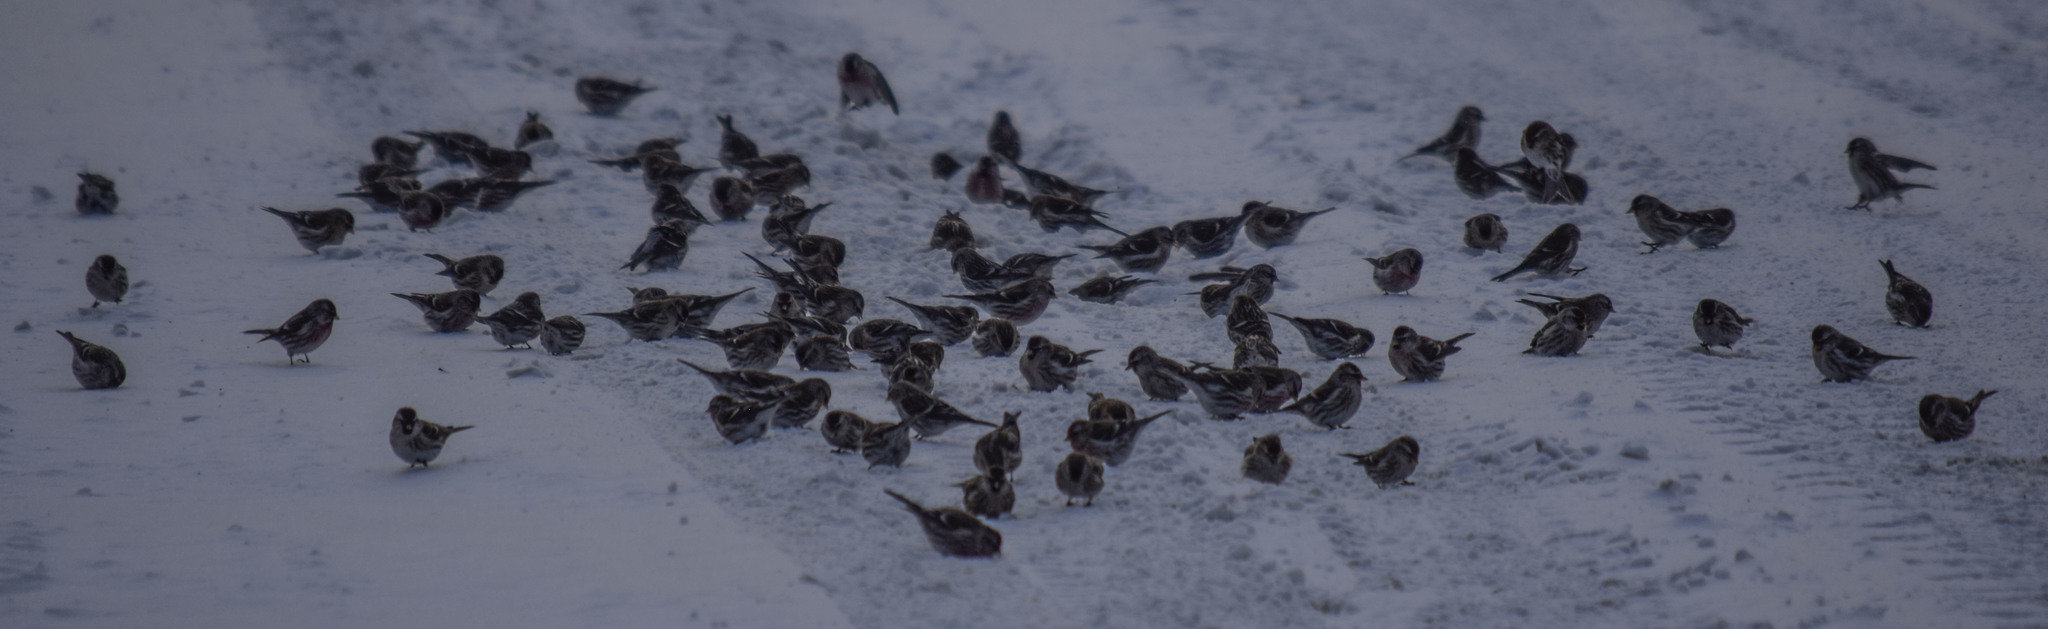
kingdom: Animalia
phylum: Chordata
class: Aves
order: Passeriformes
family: Fringillidae
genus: Acanthis
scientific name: Acanthis flammea
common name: Common redpoll
